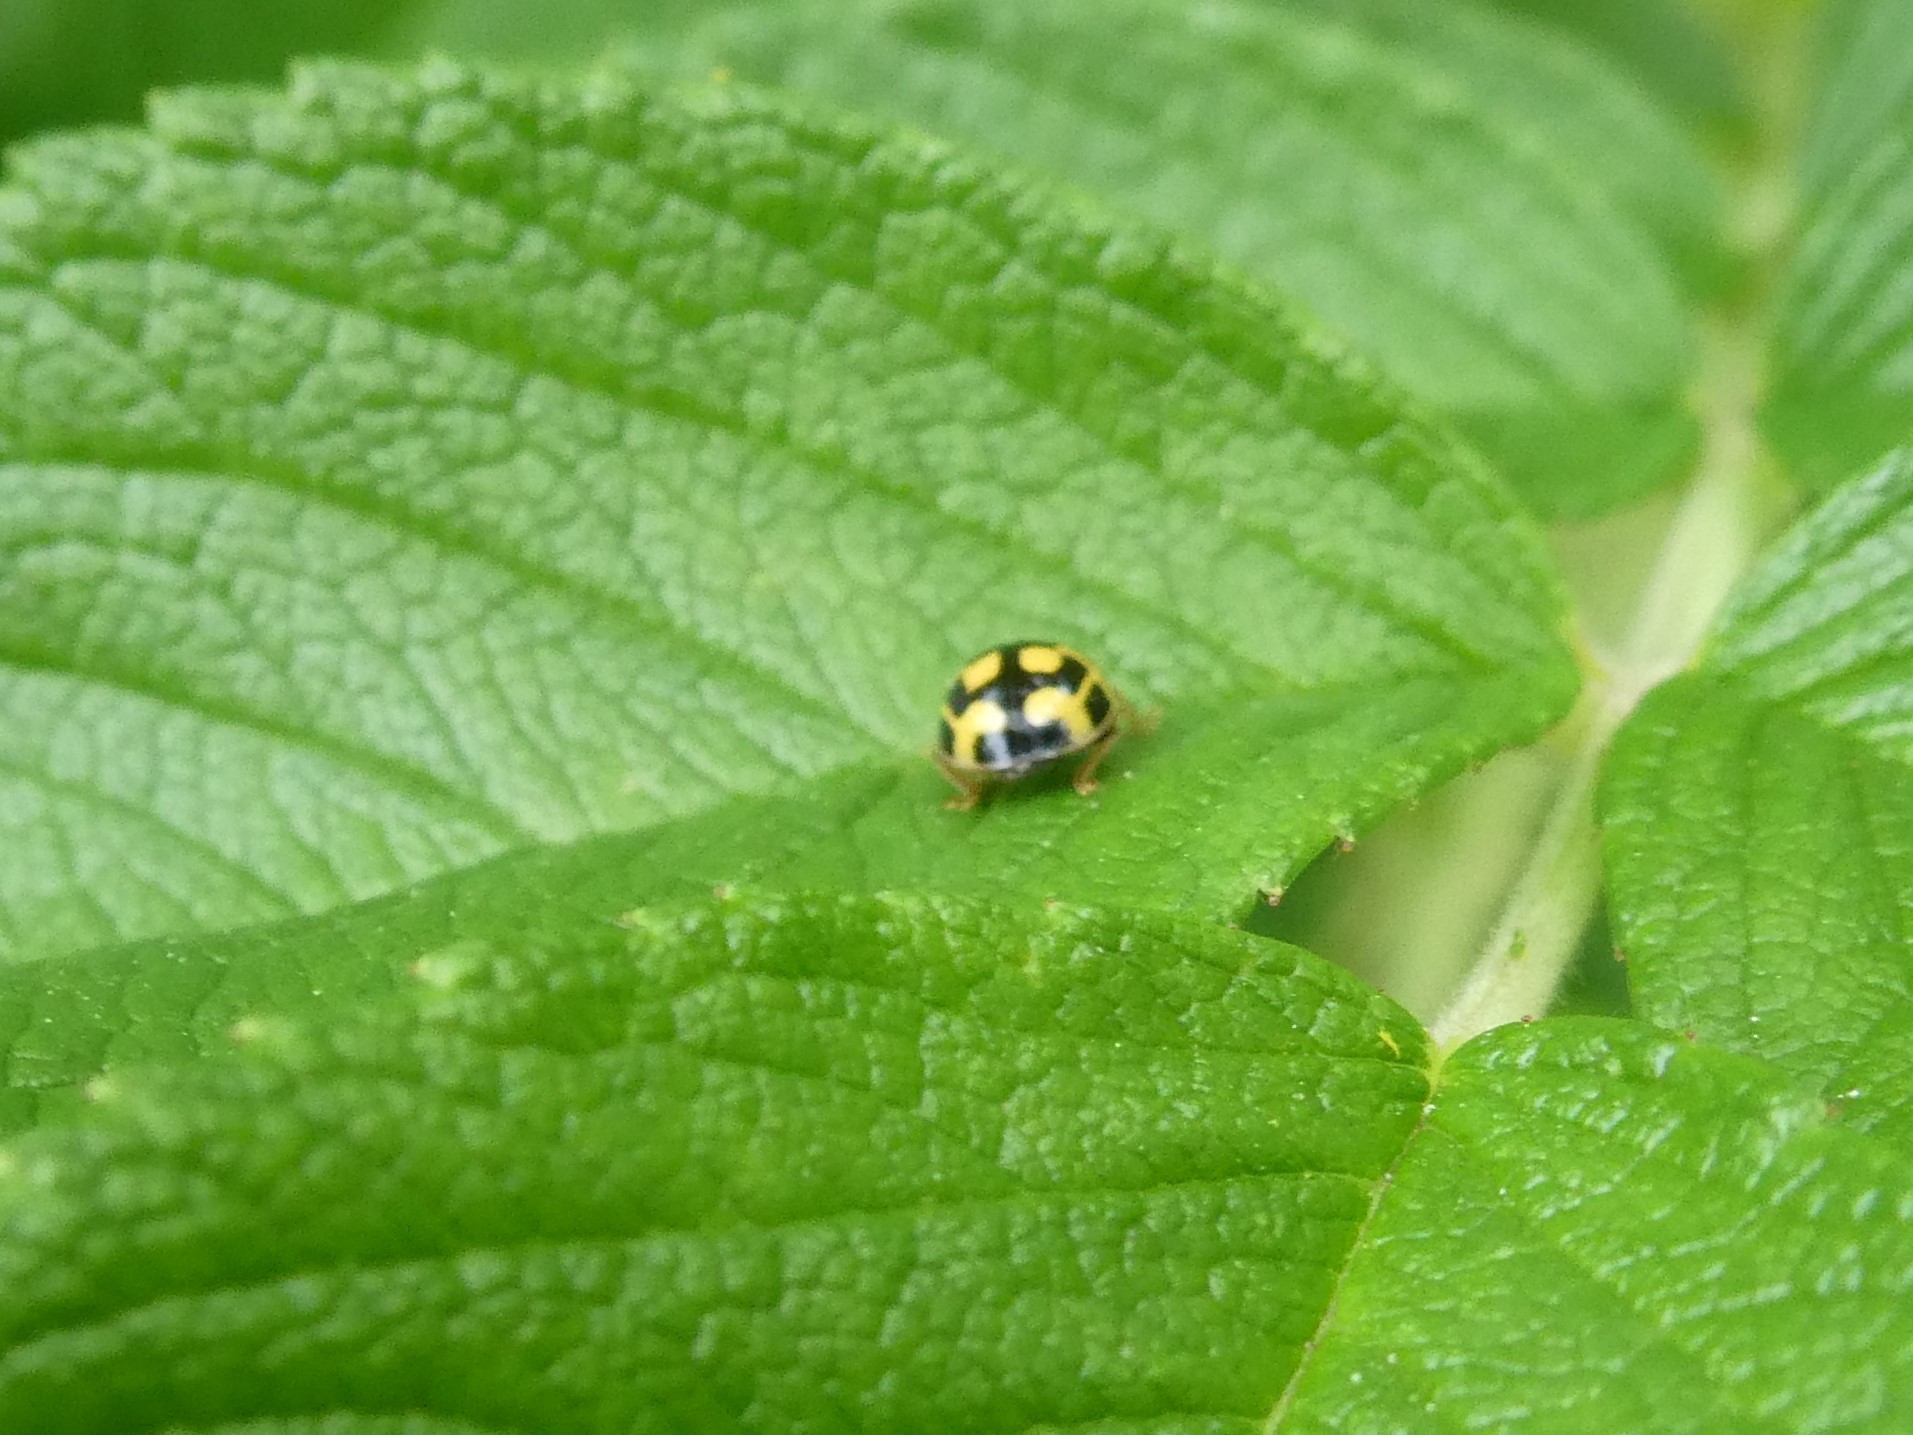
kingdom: Animalia
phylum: Arthropoda
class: Insecta
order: Coleoptera
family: Coccinellidae
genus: Propylaea
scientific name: Propylaea quatuordecimpunctata
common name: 14-spotted ladybird beetle
